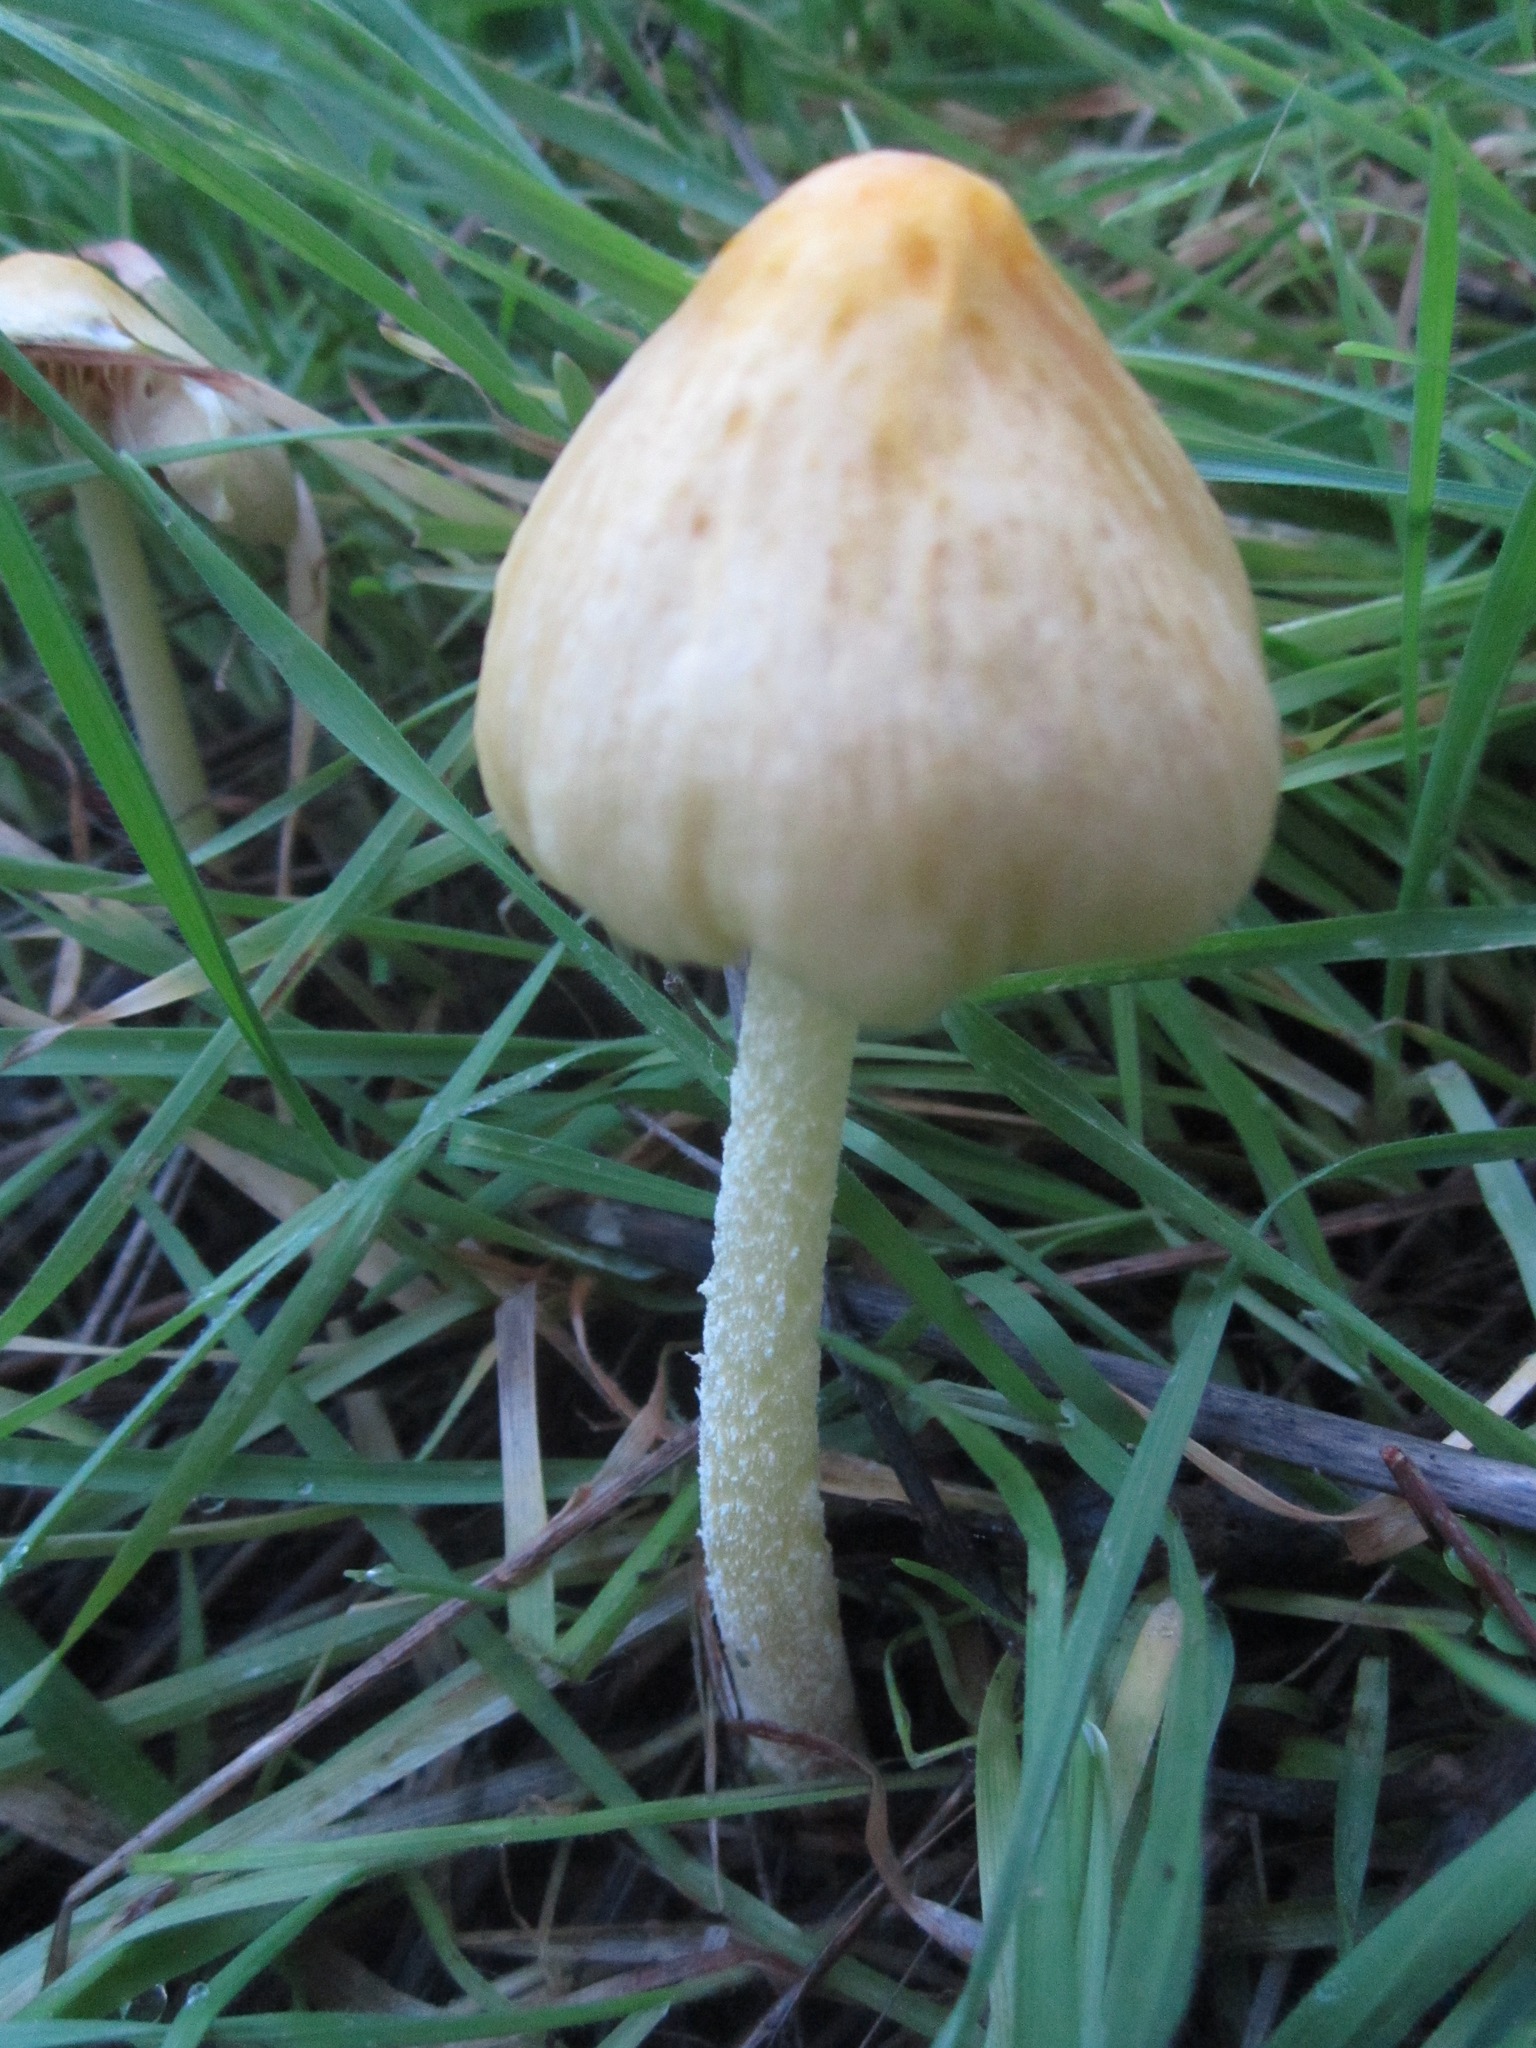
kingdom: Fungi
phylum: Basidiomycota
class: Agaricomycetes
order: Agaricales
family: Bolbitiaceae
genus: Bolbitius
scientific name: Bolbitius titubans
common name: Yellow fieldcap
